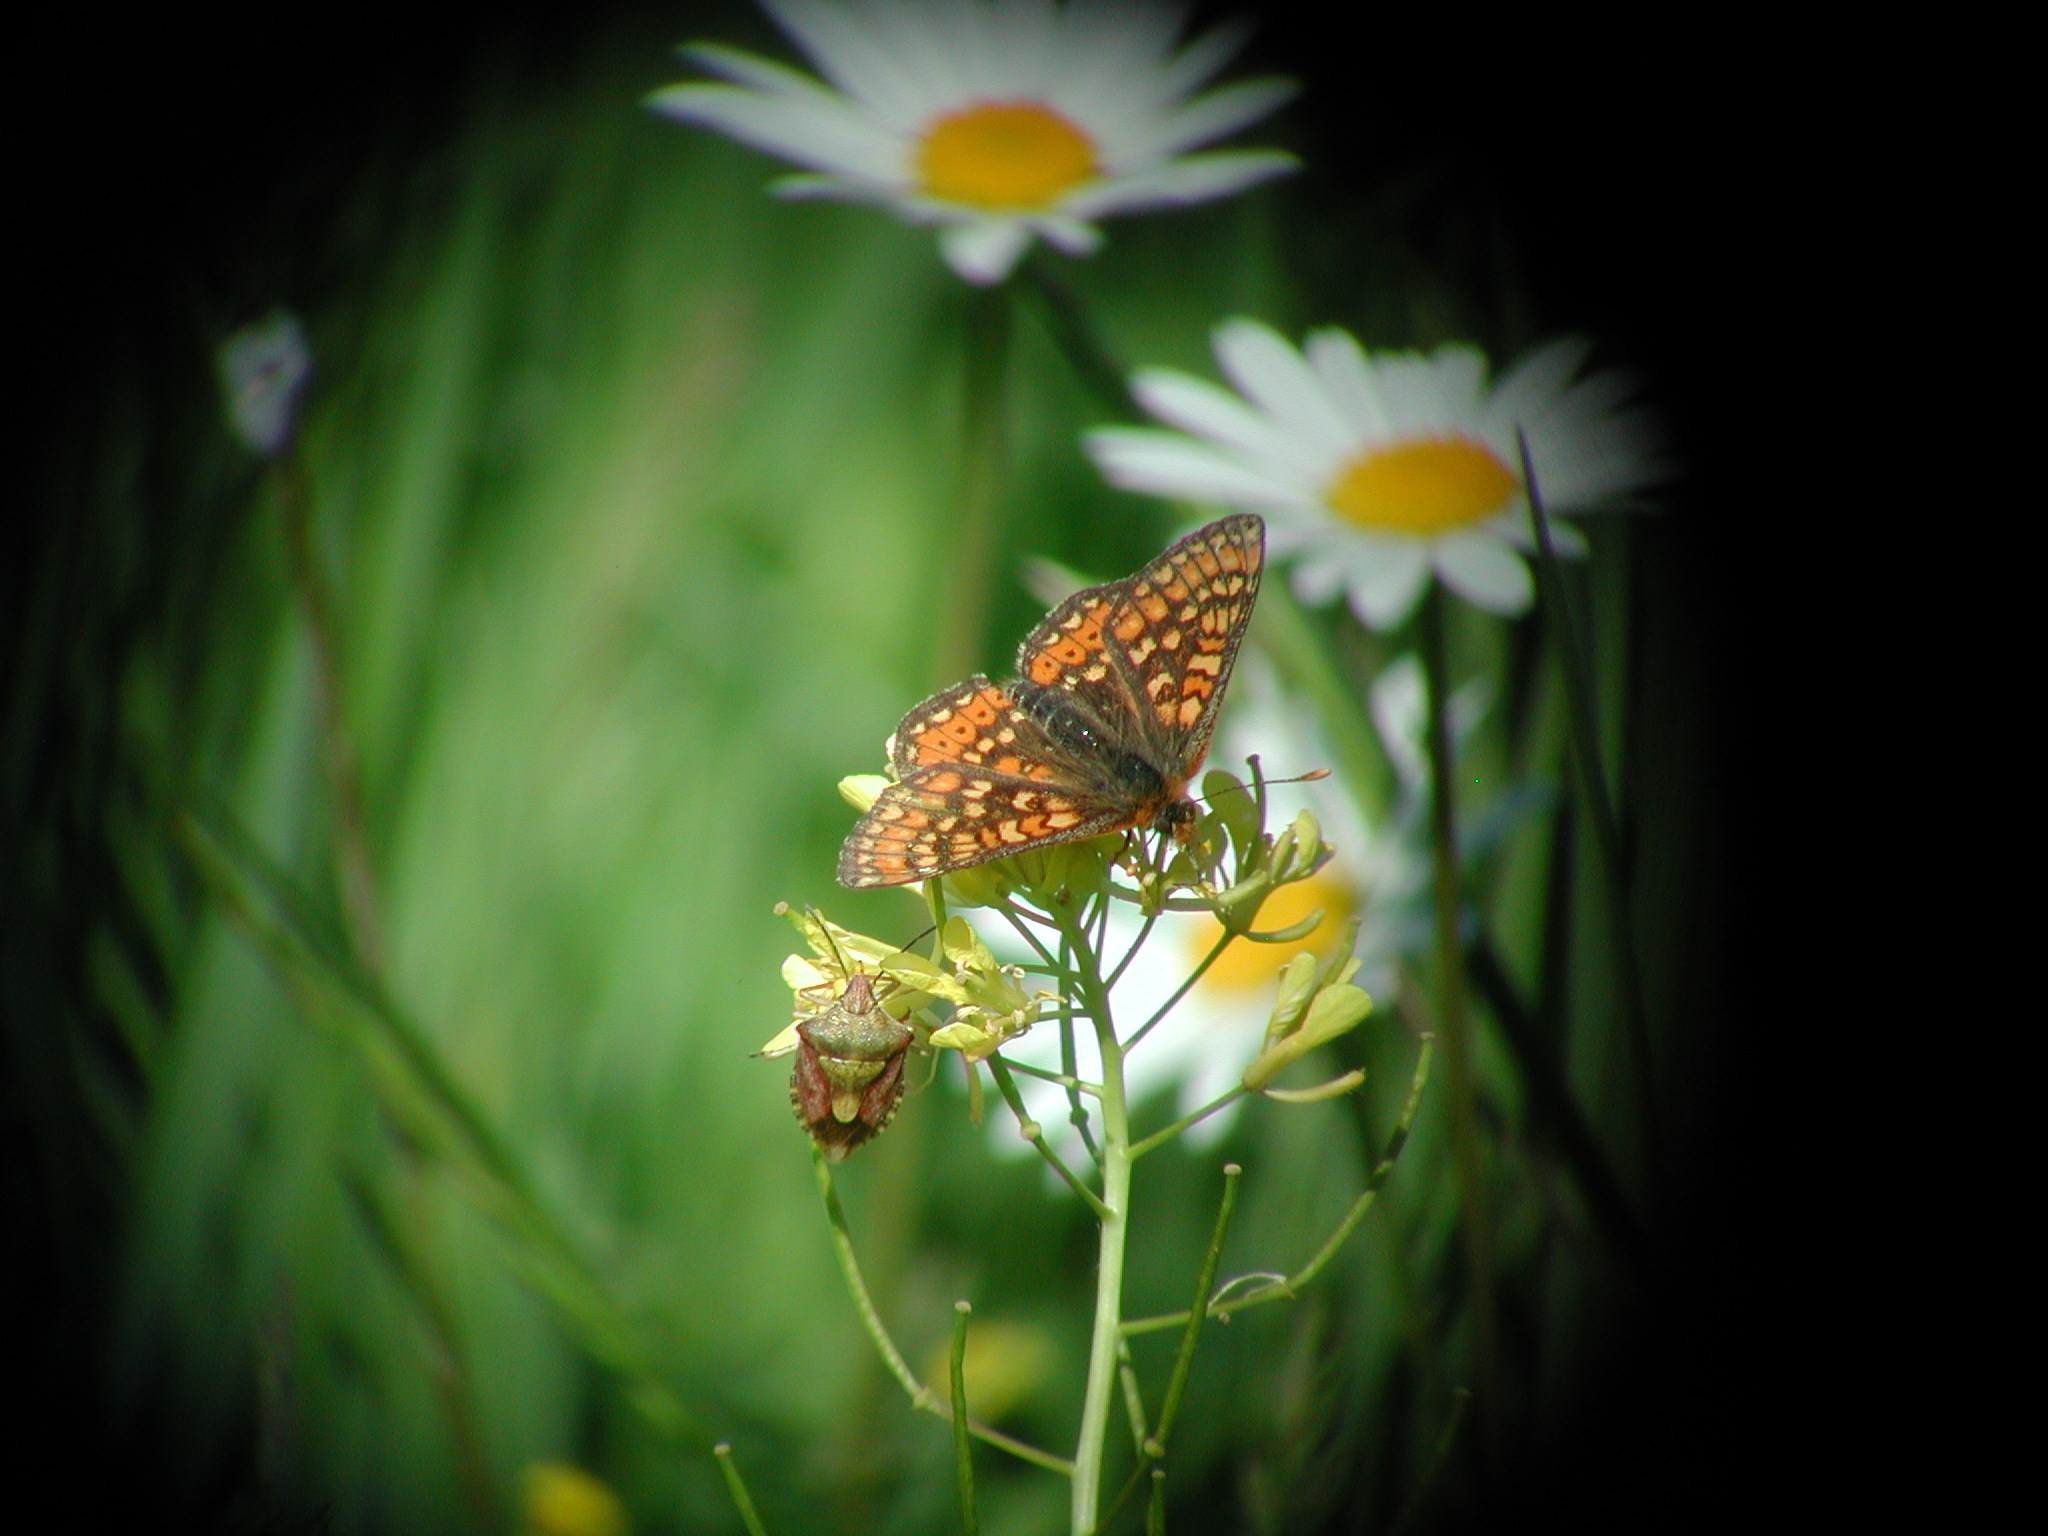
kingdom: Animalia
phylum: Arthropoda
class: Insecta
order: Lepidoptera
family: Nymphalidae
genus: Euphydryas
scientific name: Euphydryas aurinia
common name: Marsh fritillary
